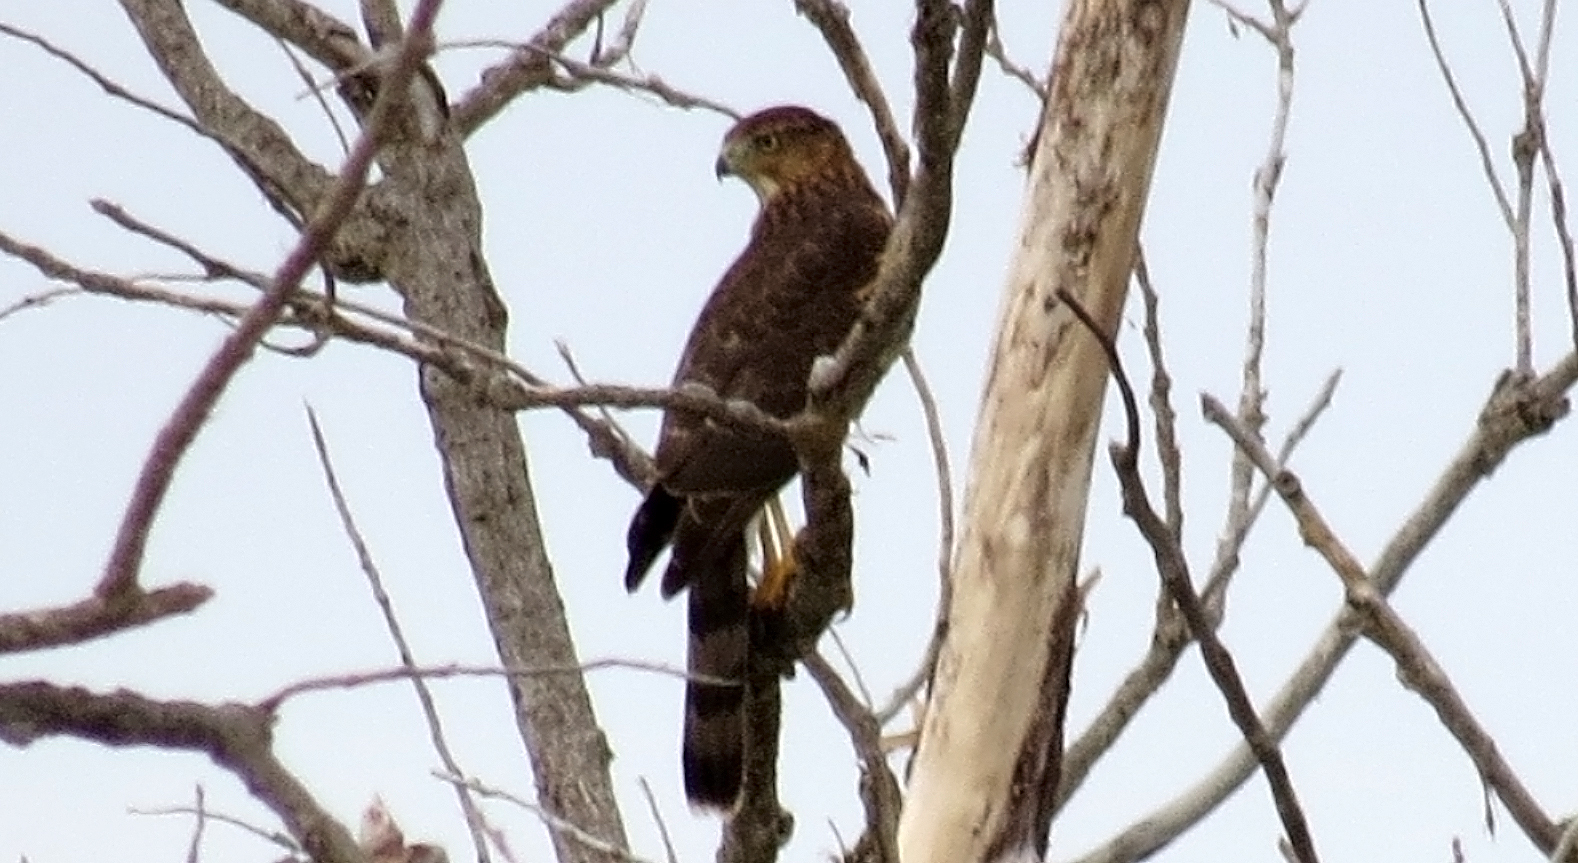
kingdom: Animalia
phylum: Chordata
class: Aves
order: Accipitriformes
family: Accipitridae
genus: Accipiter
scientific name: Accipiter cooperii
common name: Cooper's hawk
